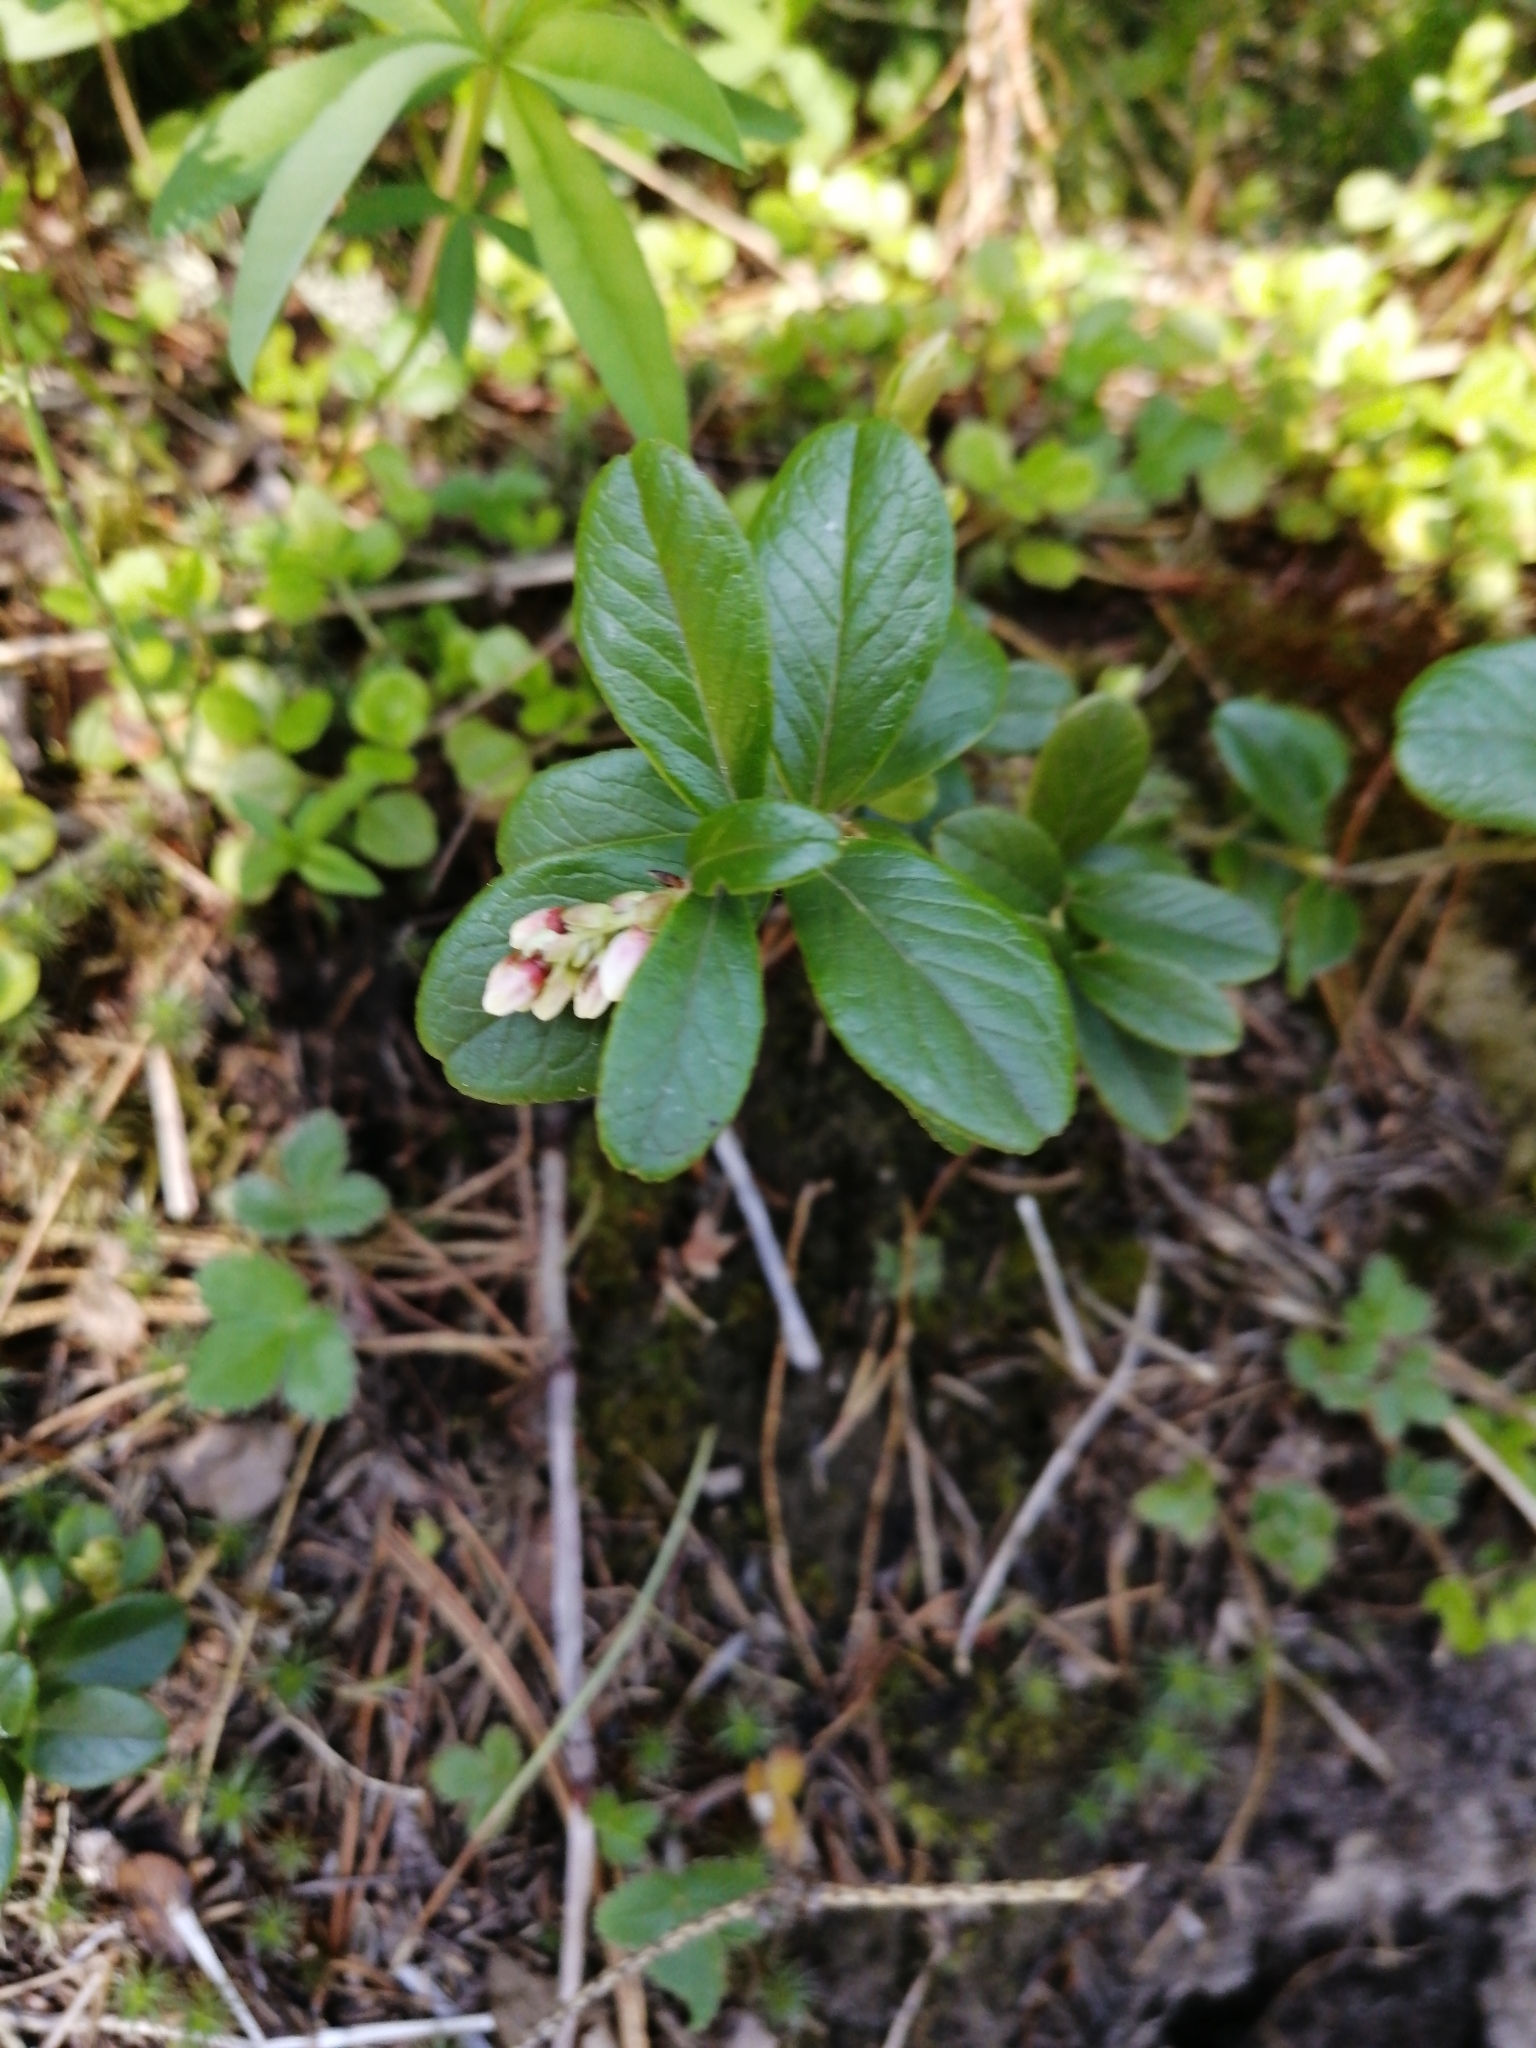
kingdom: Plantae
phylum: Tracheophyta
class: Magnoliopsida
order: Ericales
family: Ericaceae
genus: Vaccinium
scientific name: Vaccinium vitis-idaea
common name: Cowberry
